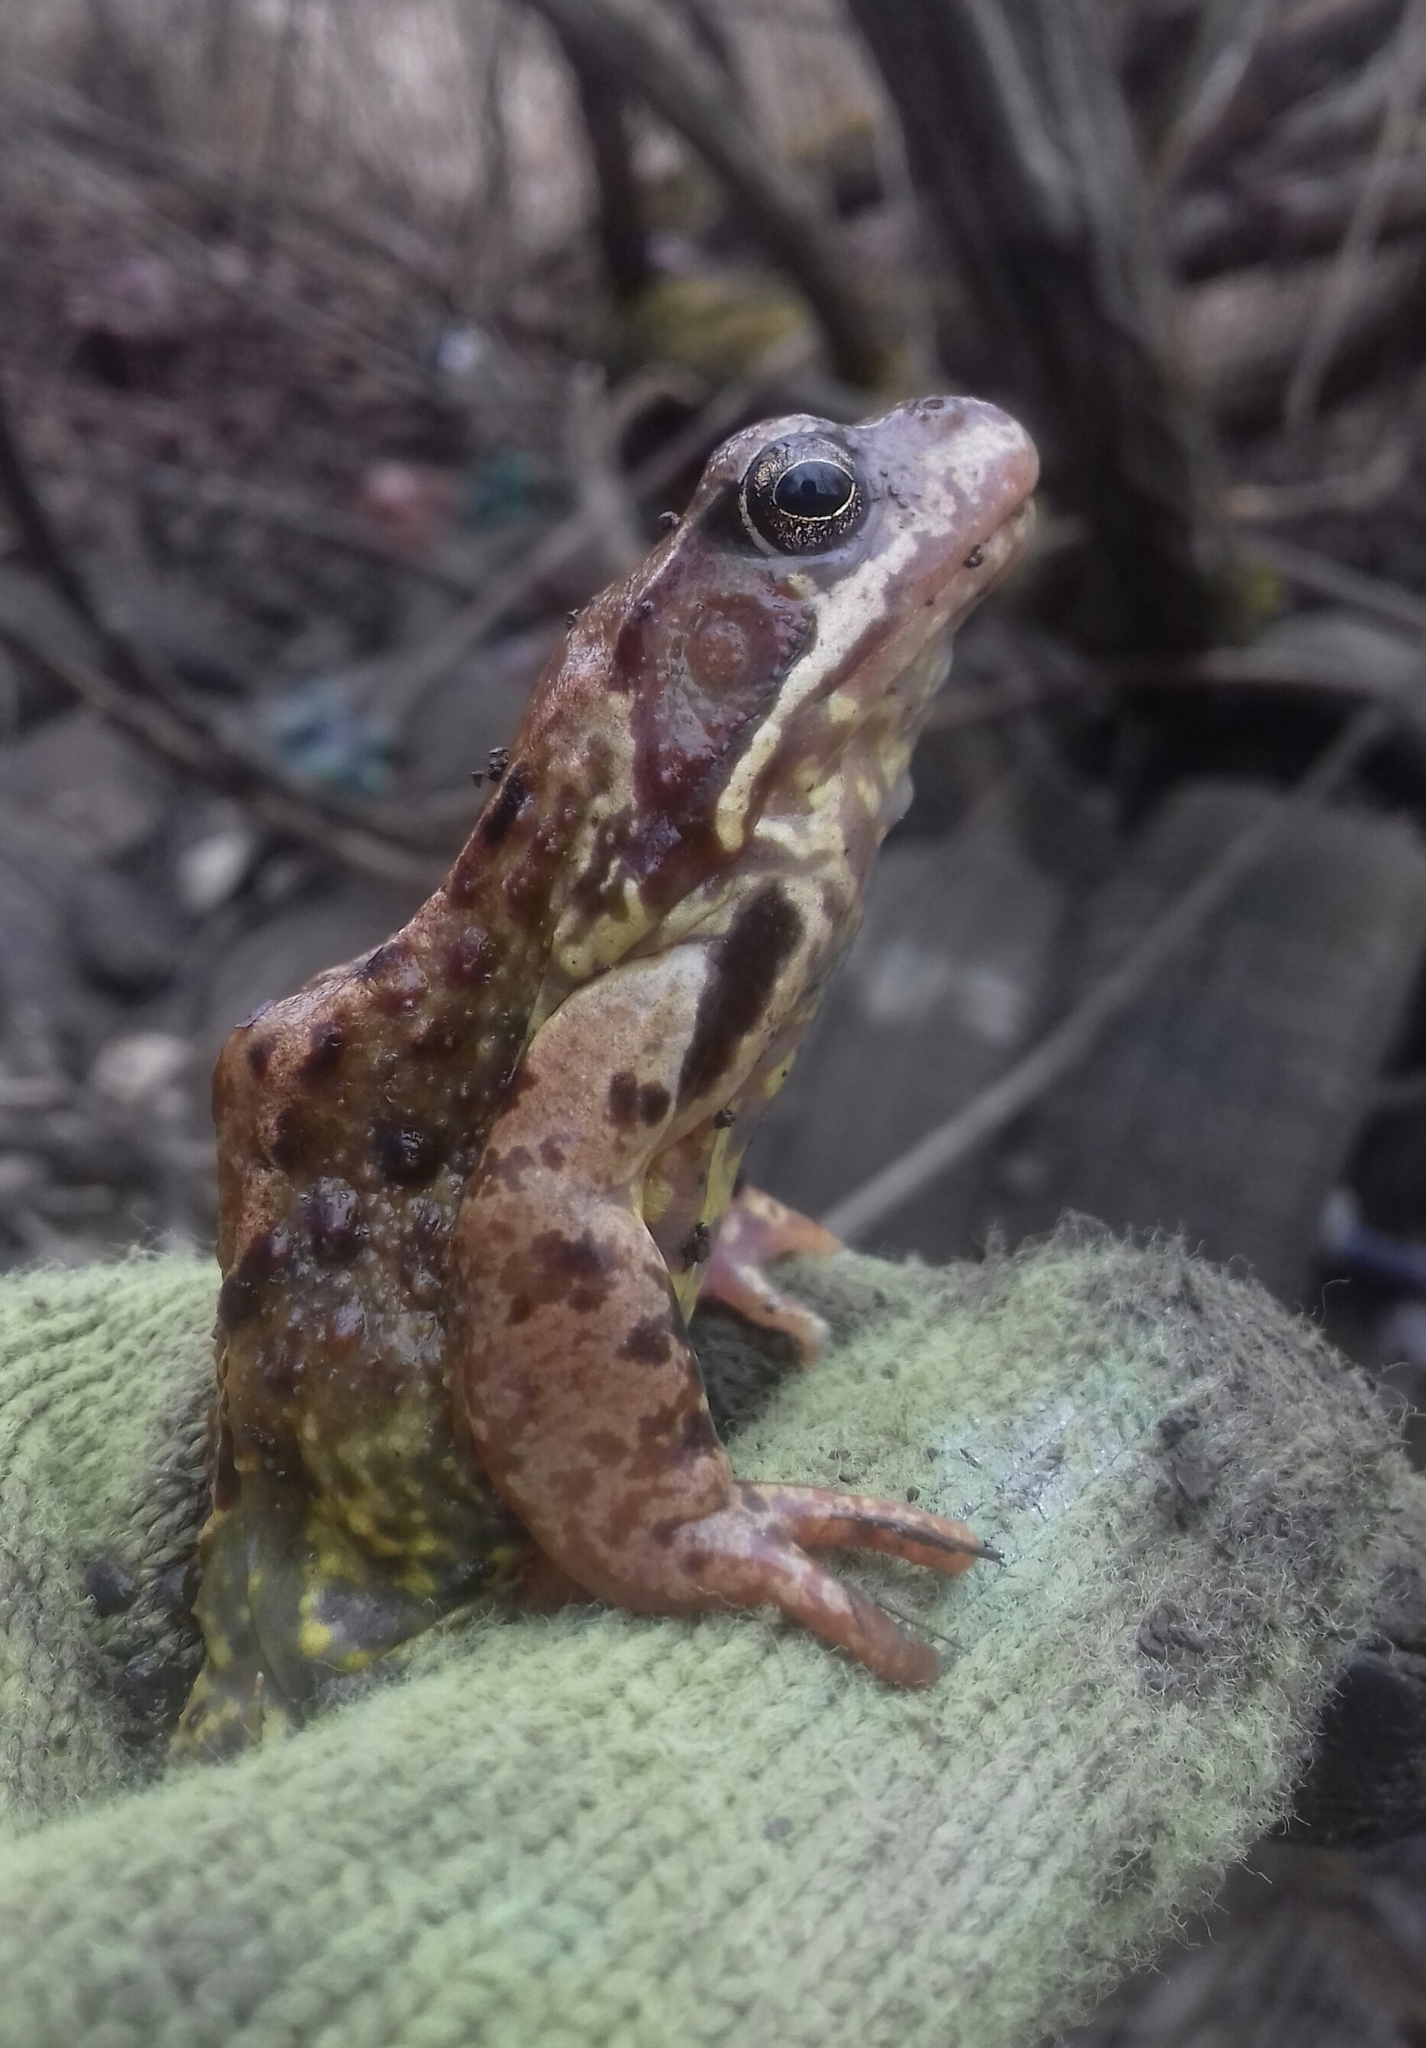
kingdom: Animalia
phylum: Chordata
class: Amphibia
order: Anura
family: Ranidae
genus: Rana
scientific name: Rana temporaria
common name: Common frog
